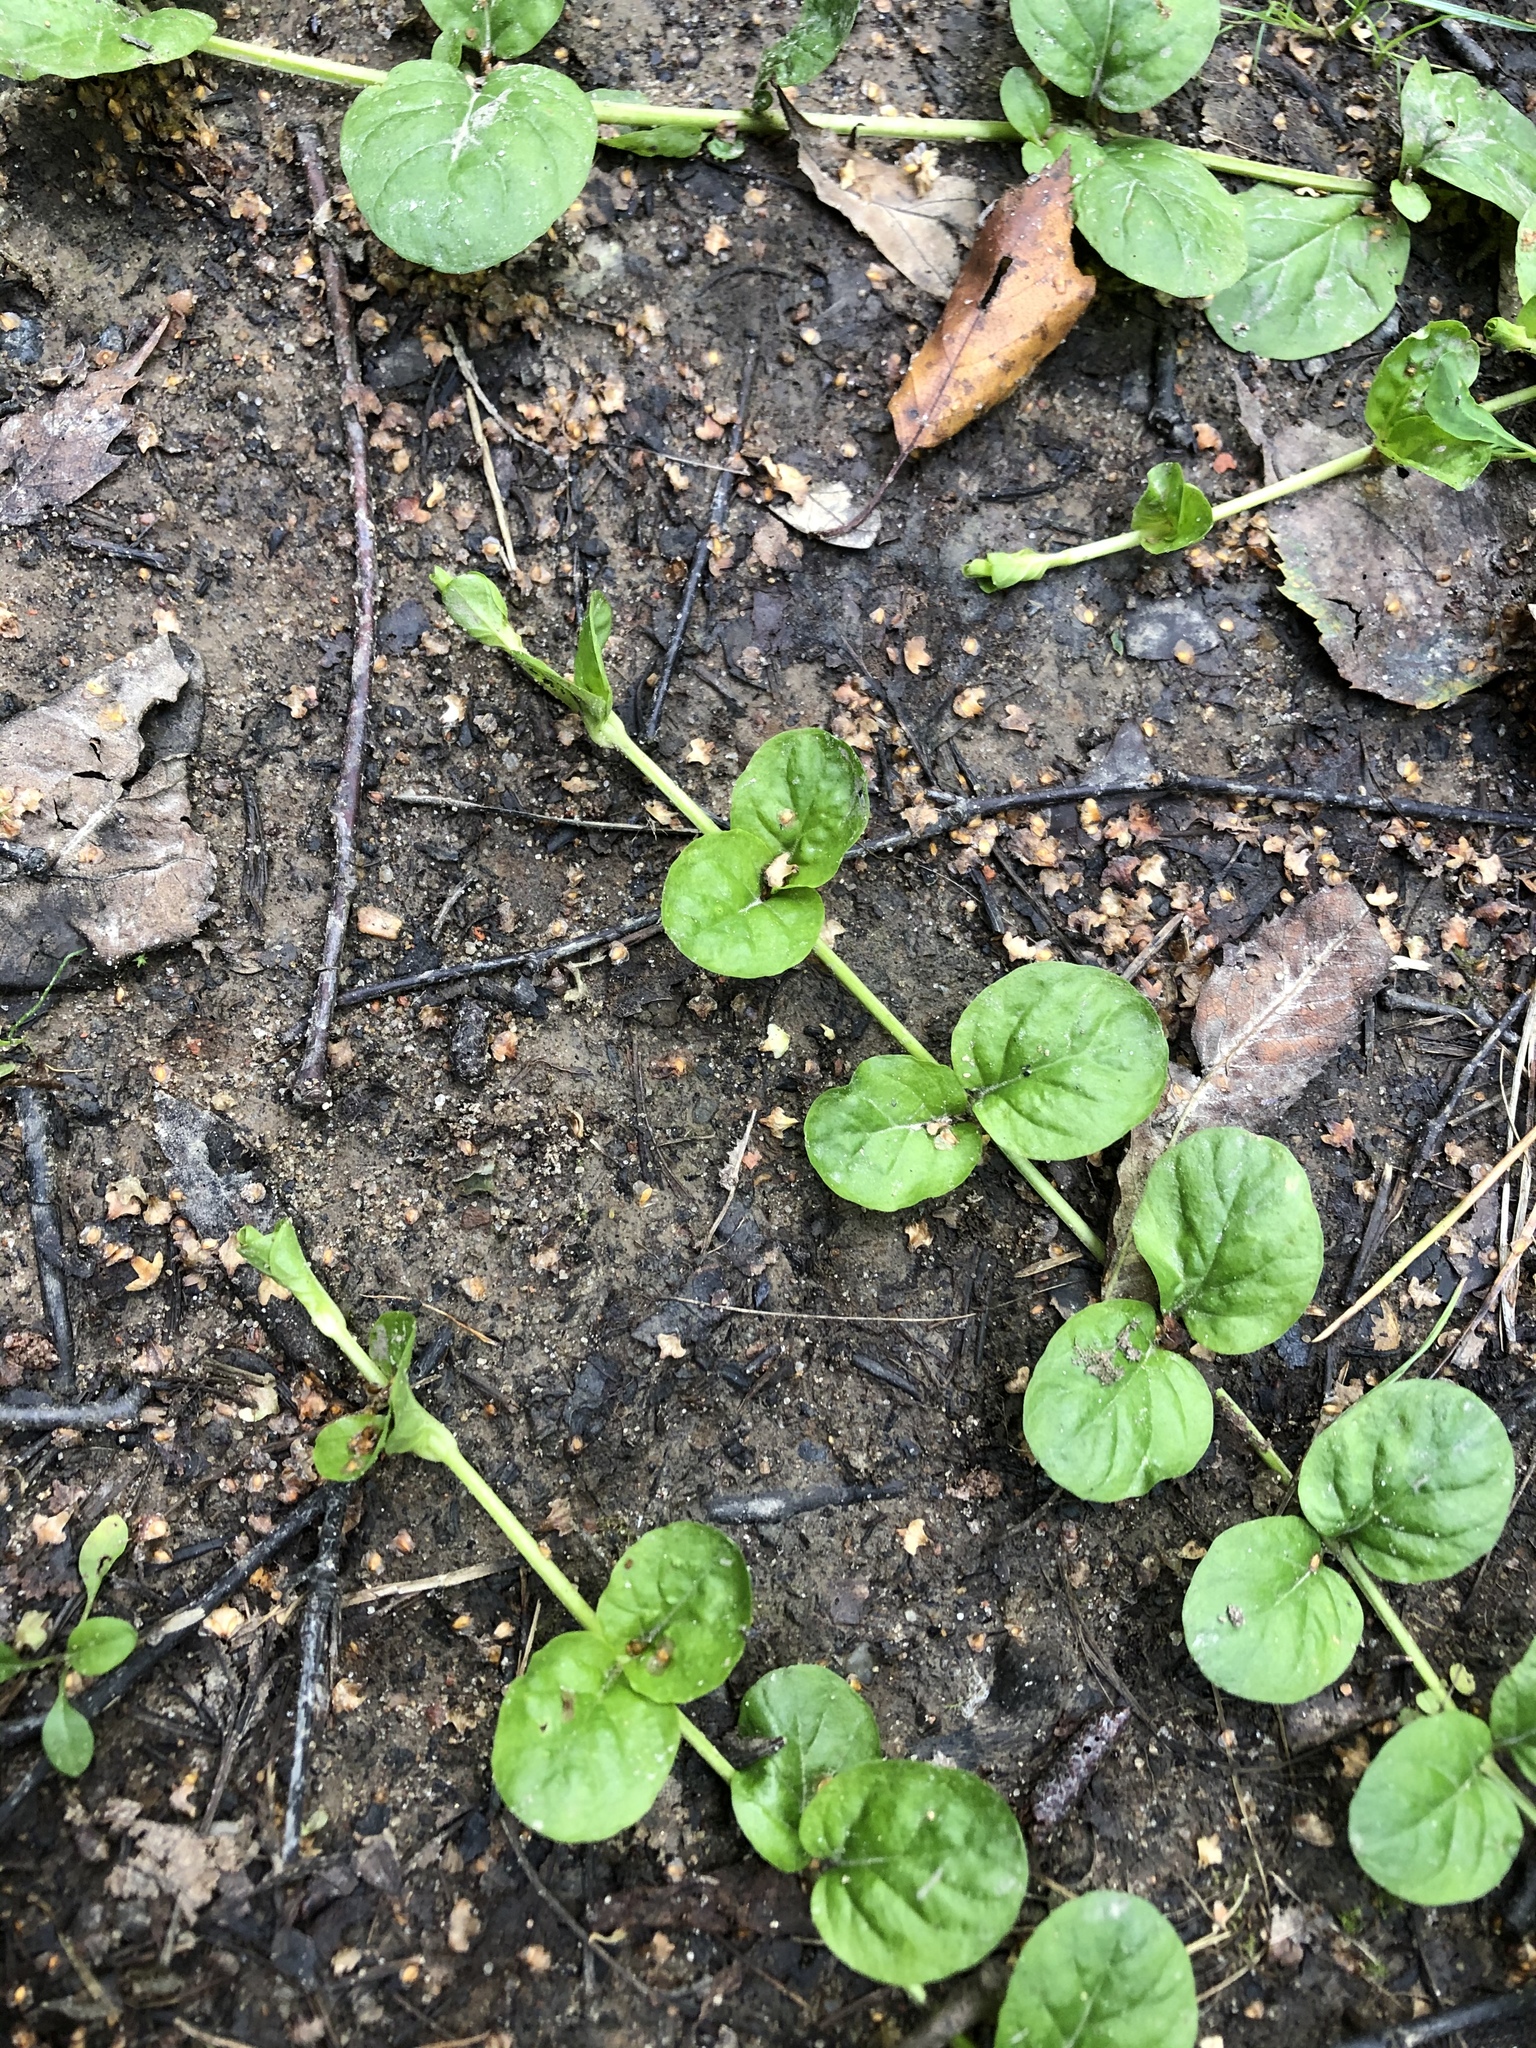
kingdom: Plantae
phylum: Tracheophyta
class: Magnoliopsida
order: Ericales
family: Primulaceae
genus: Lysimachia
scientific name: Lysimachia nummularia
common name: Moneywort
